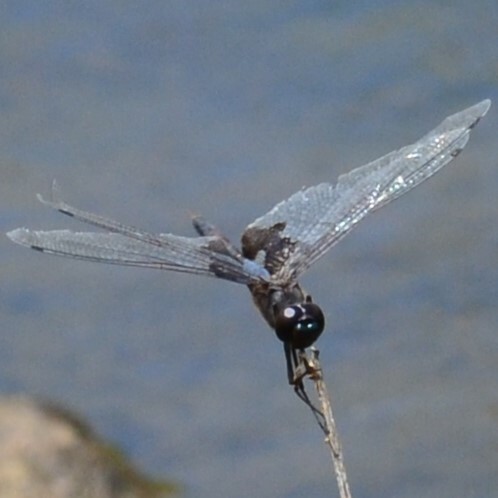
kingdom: Animalia
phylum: Arthropoda
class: Insecta
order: Odonata
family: Libellulidae
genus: Tramea
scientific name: Tramea lacerata
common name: Black saddlebags
